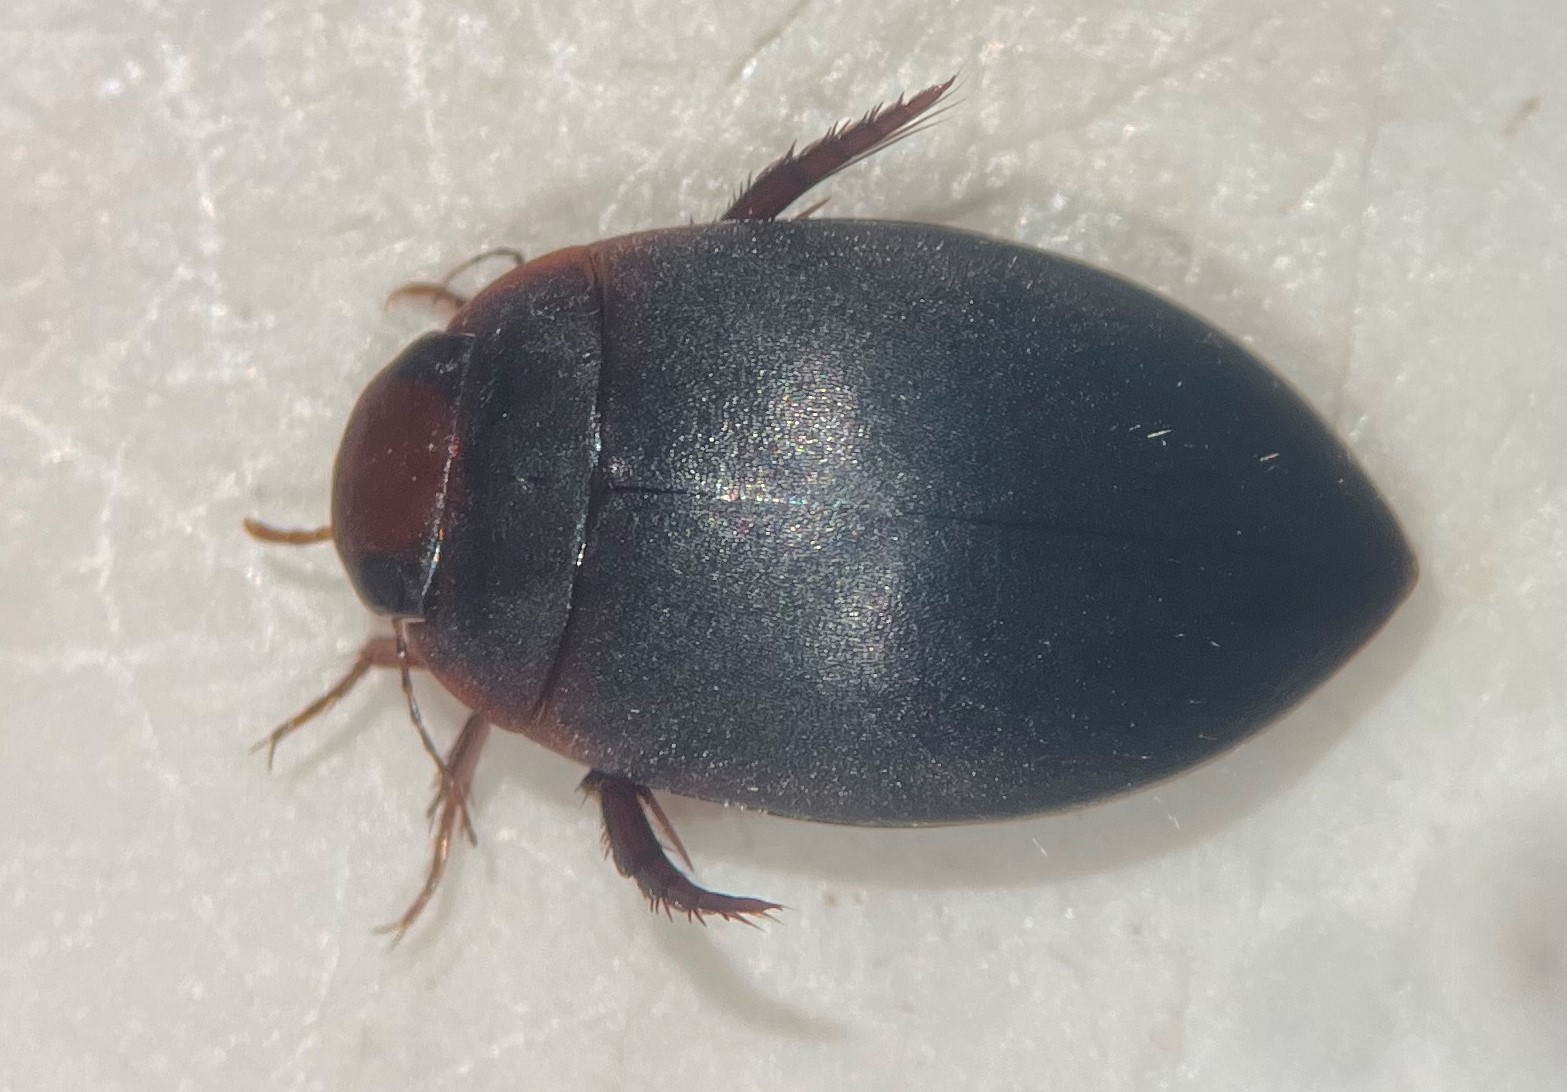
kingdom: Animalia
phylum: Arthropoda
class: Insecta
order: Coleoptera
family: Dytiscidae
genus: Agabetes
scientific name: Agabetes acuductus
